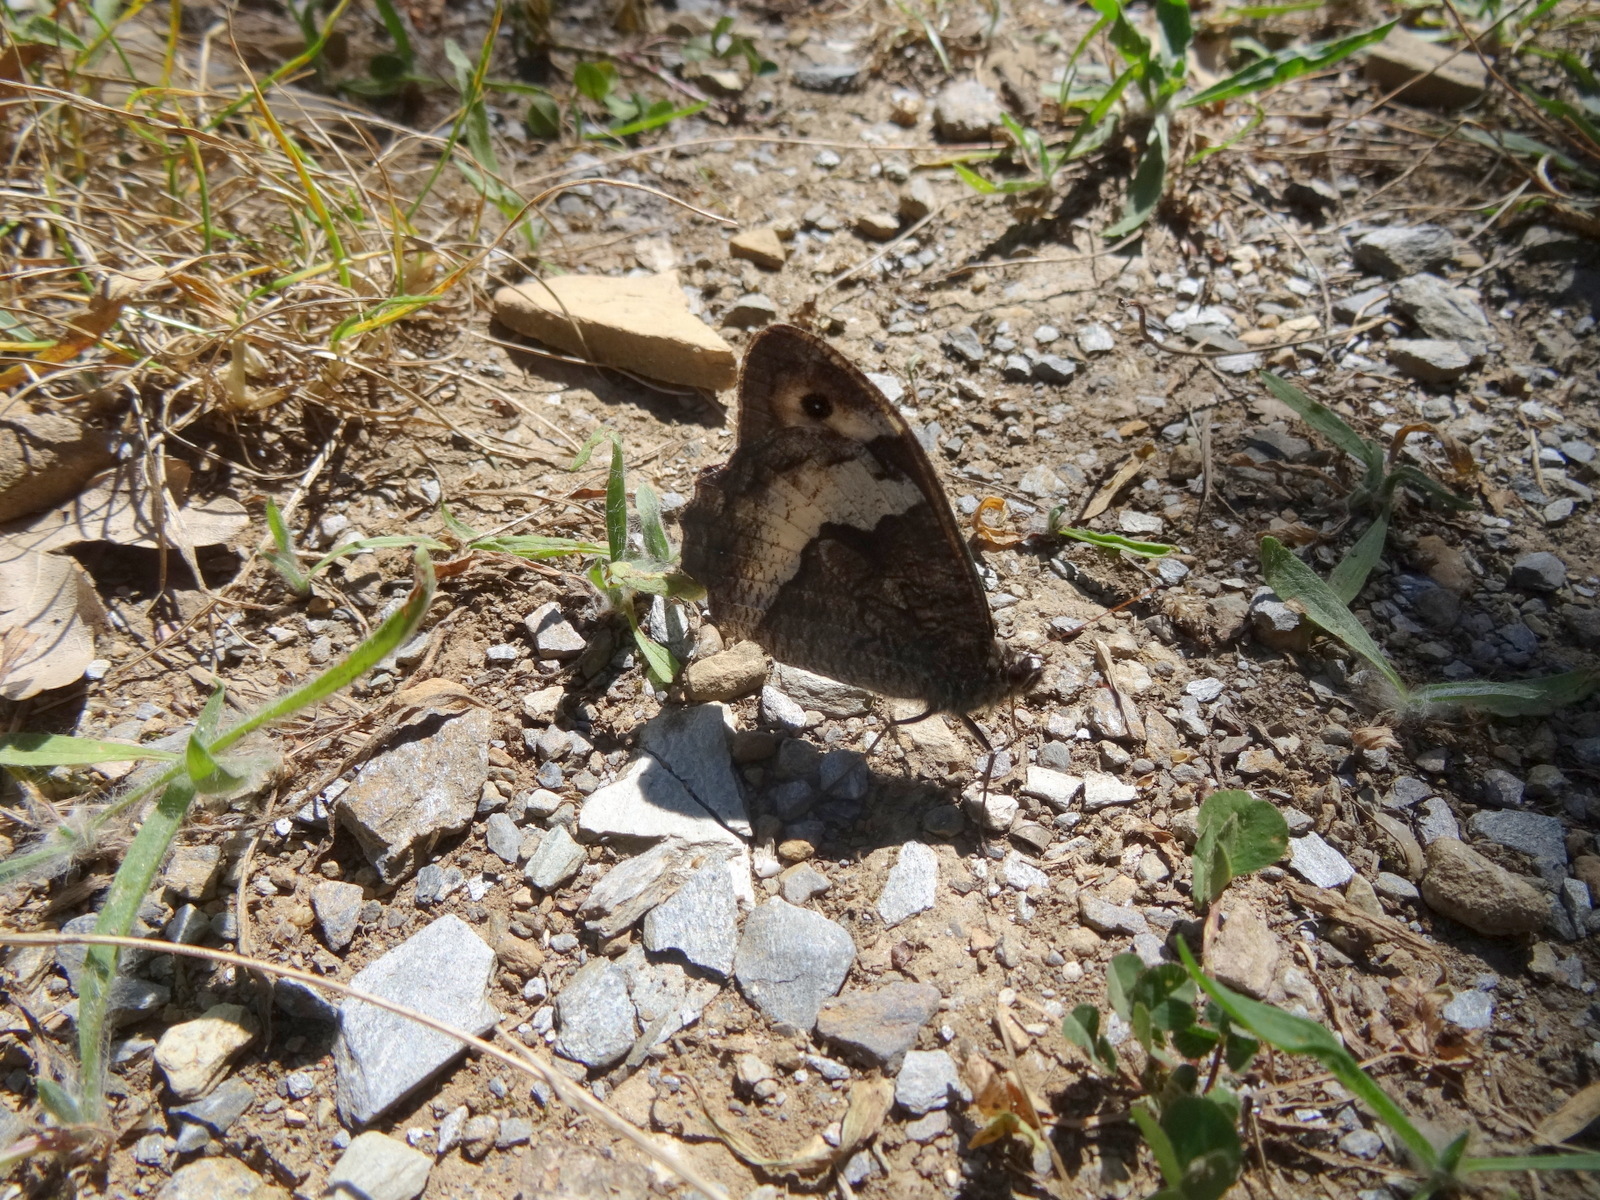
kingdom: Animalia
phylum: Arthropoda
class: Insecta
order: Lepidoptera
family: Nymphalidae
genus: Hipparchia
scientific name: Hipparchia fagi
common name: Woodland grayling
